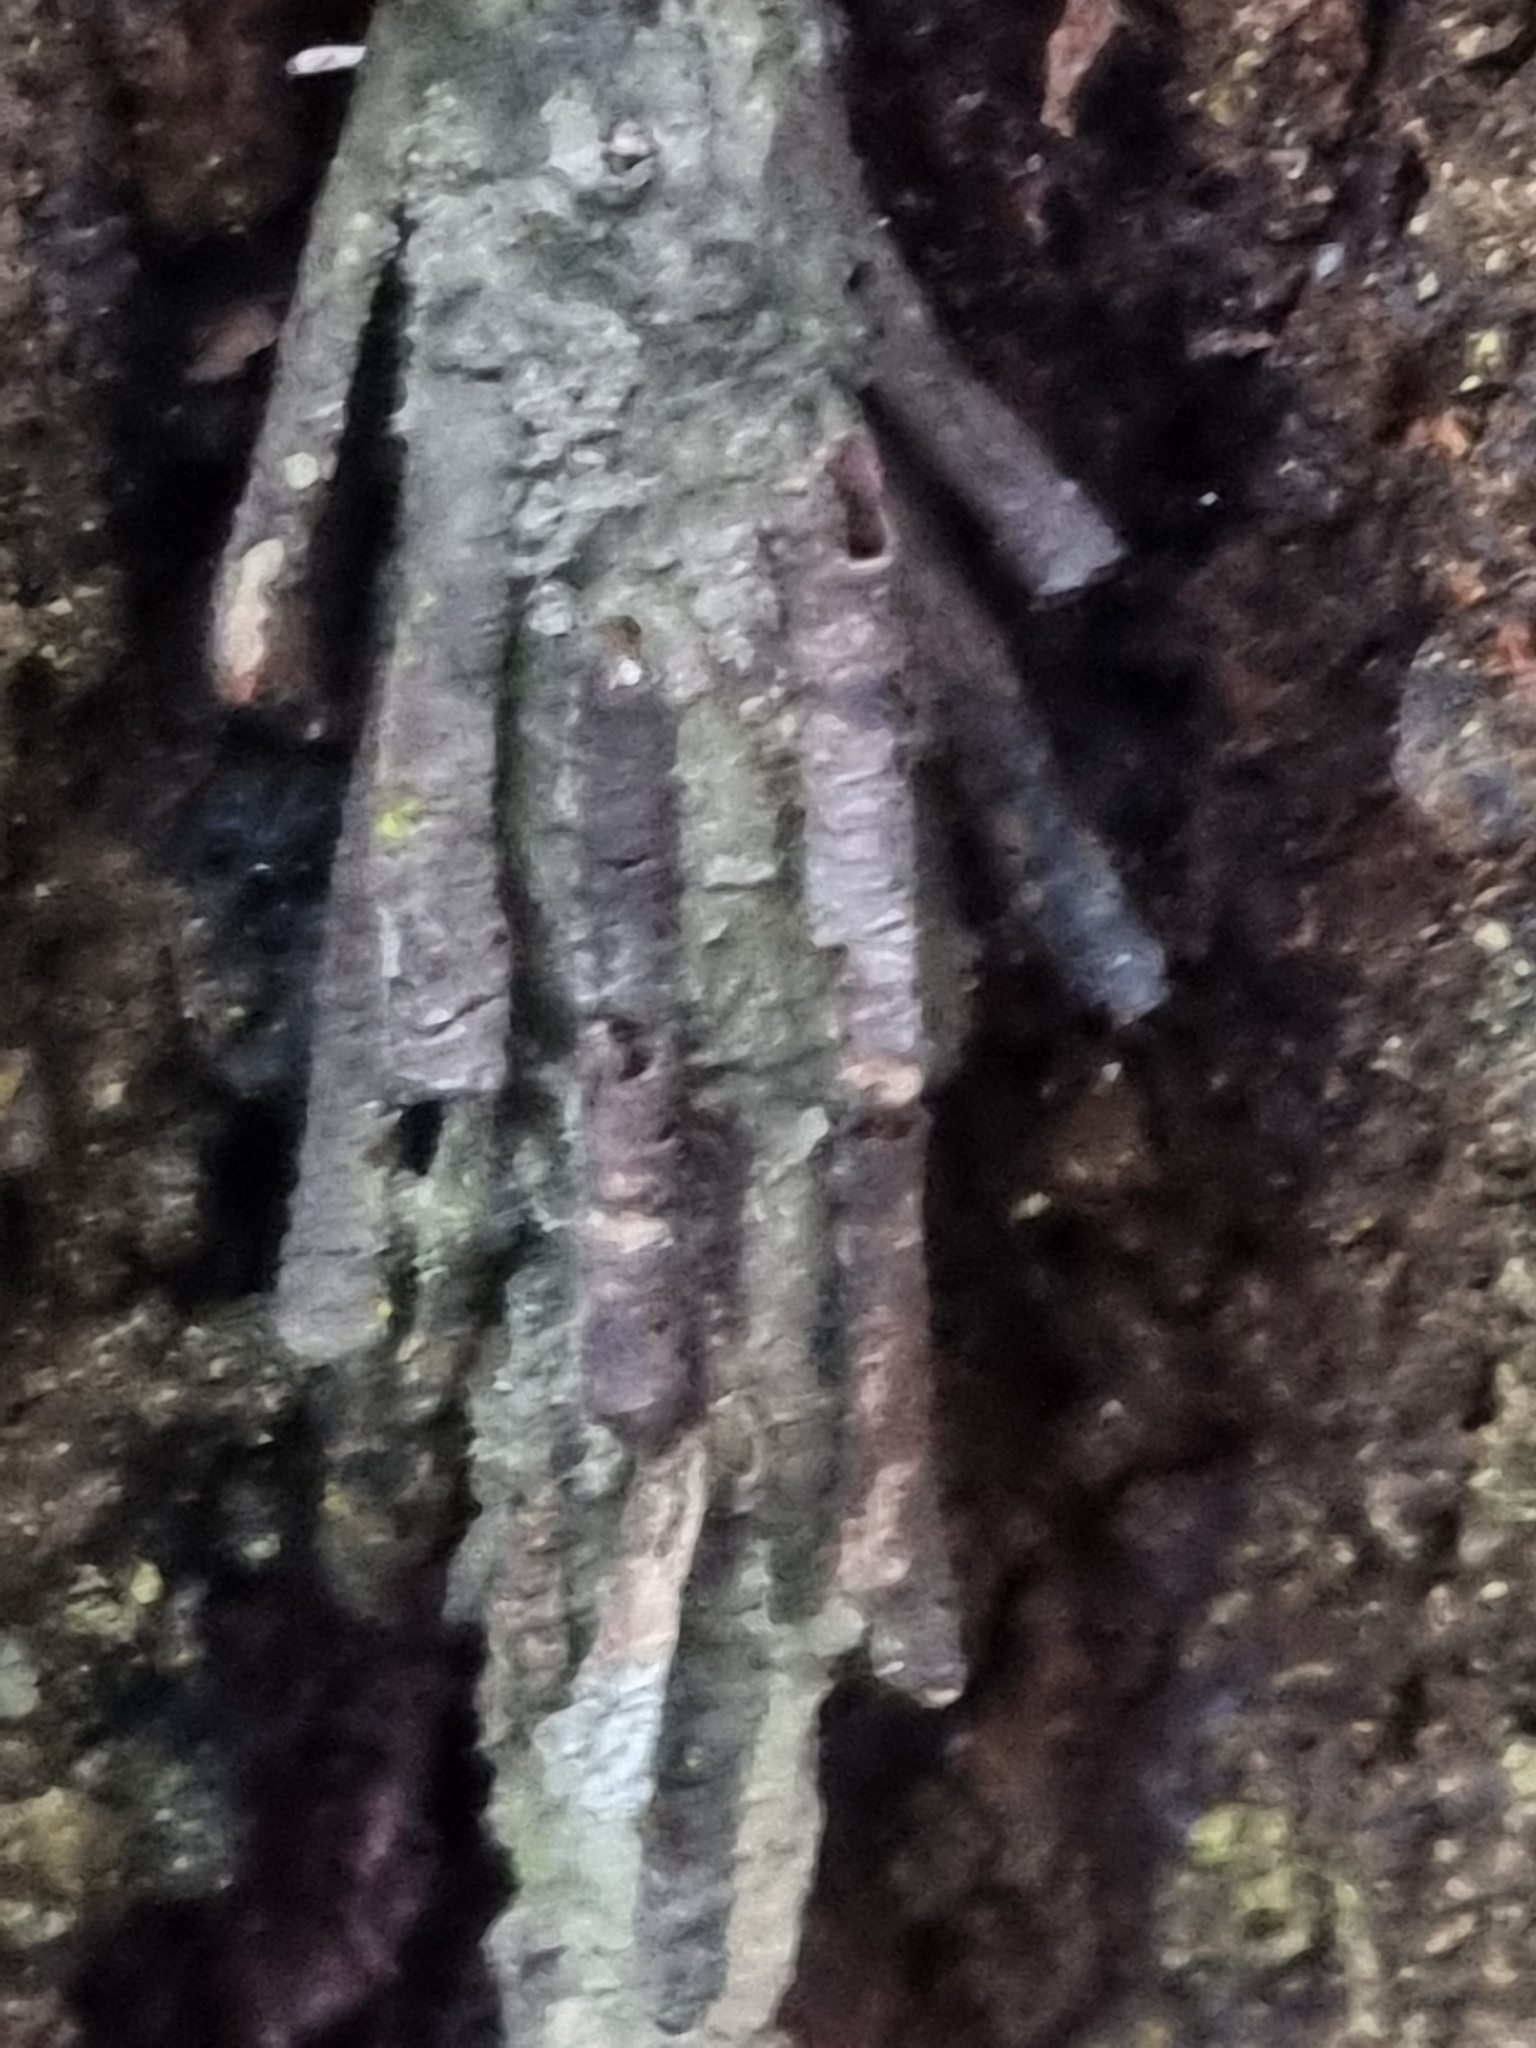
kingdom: Animalia
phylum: Arthropoda
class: Insecta
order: Lepidoptera
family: Psychidae
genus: Metura
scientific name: Metura elongatus
